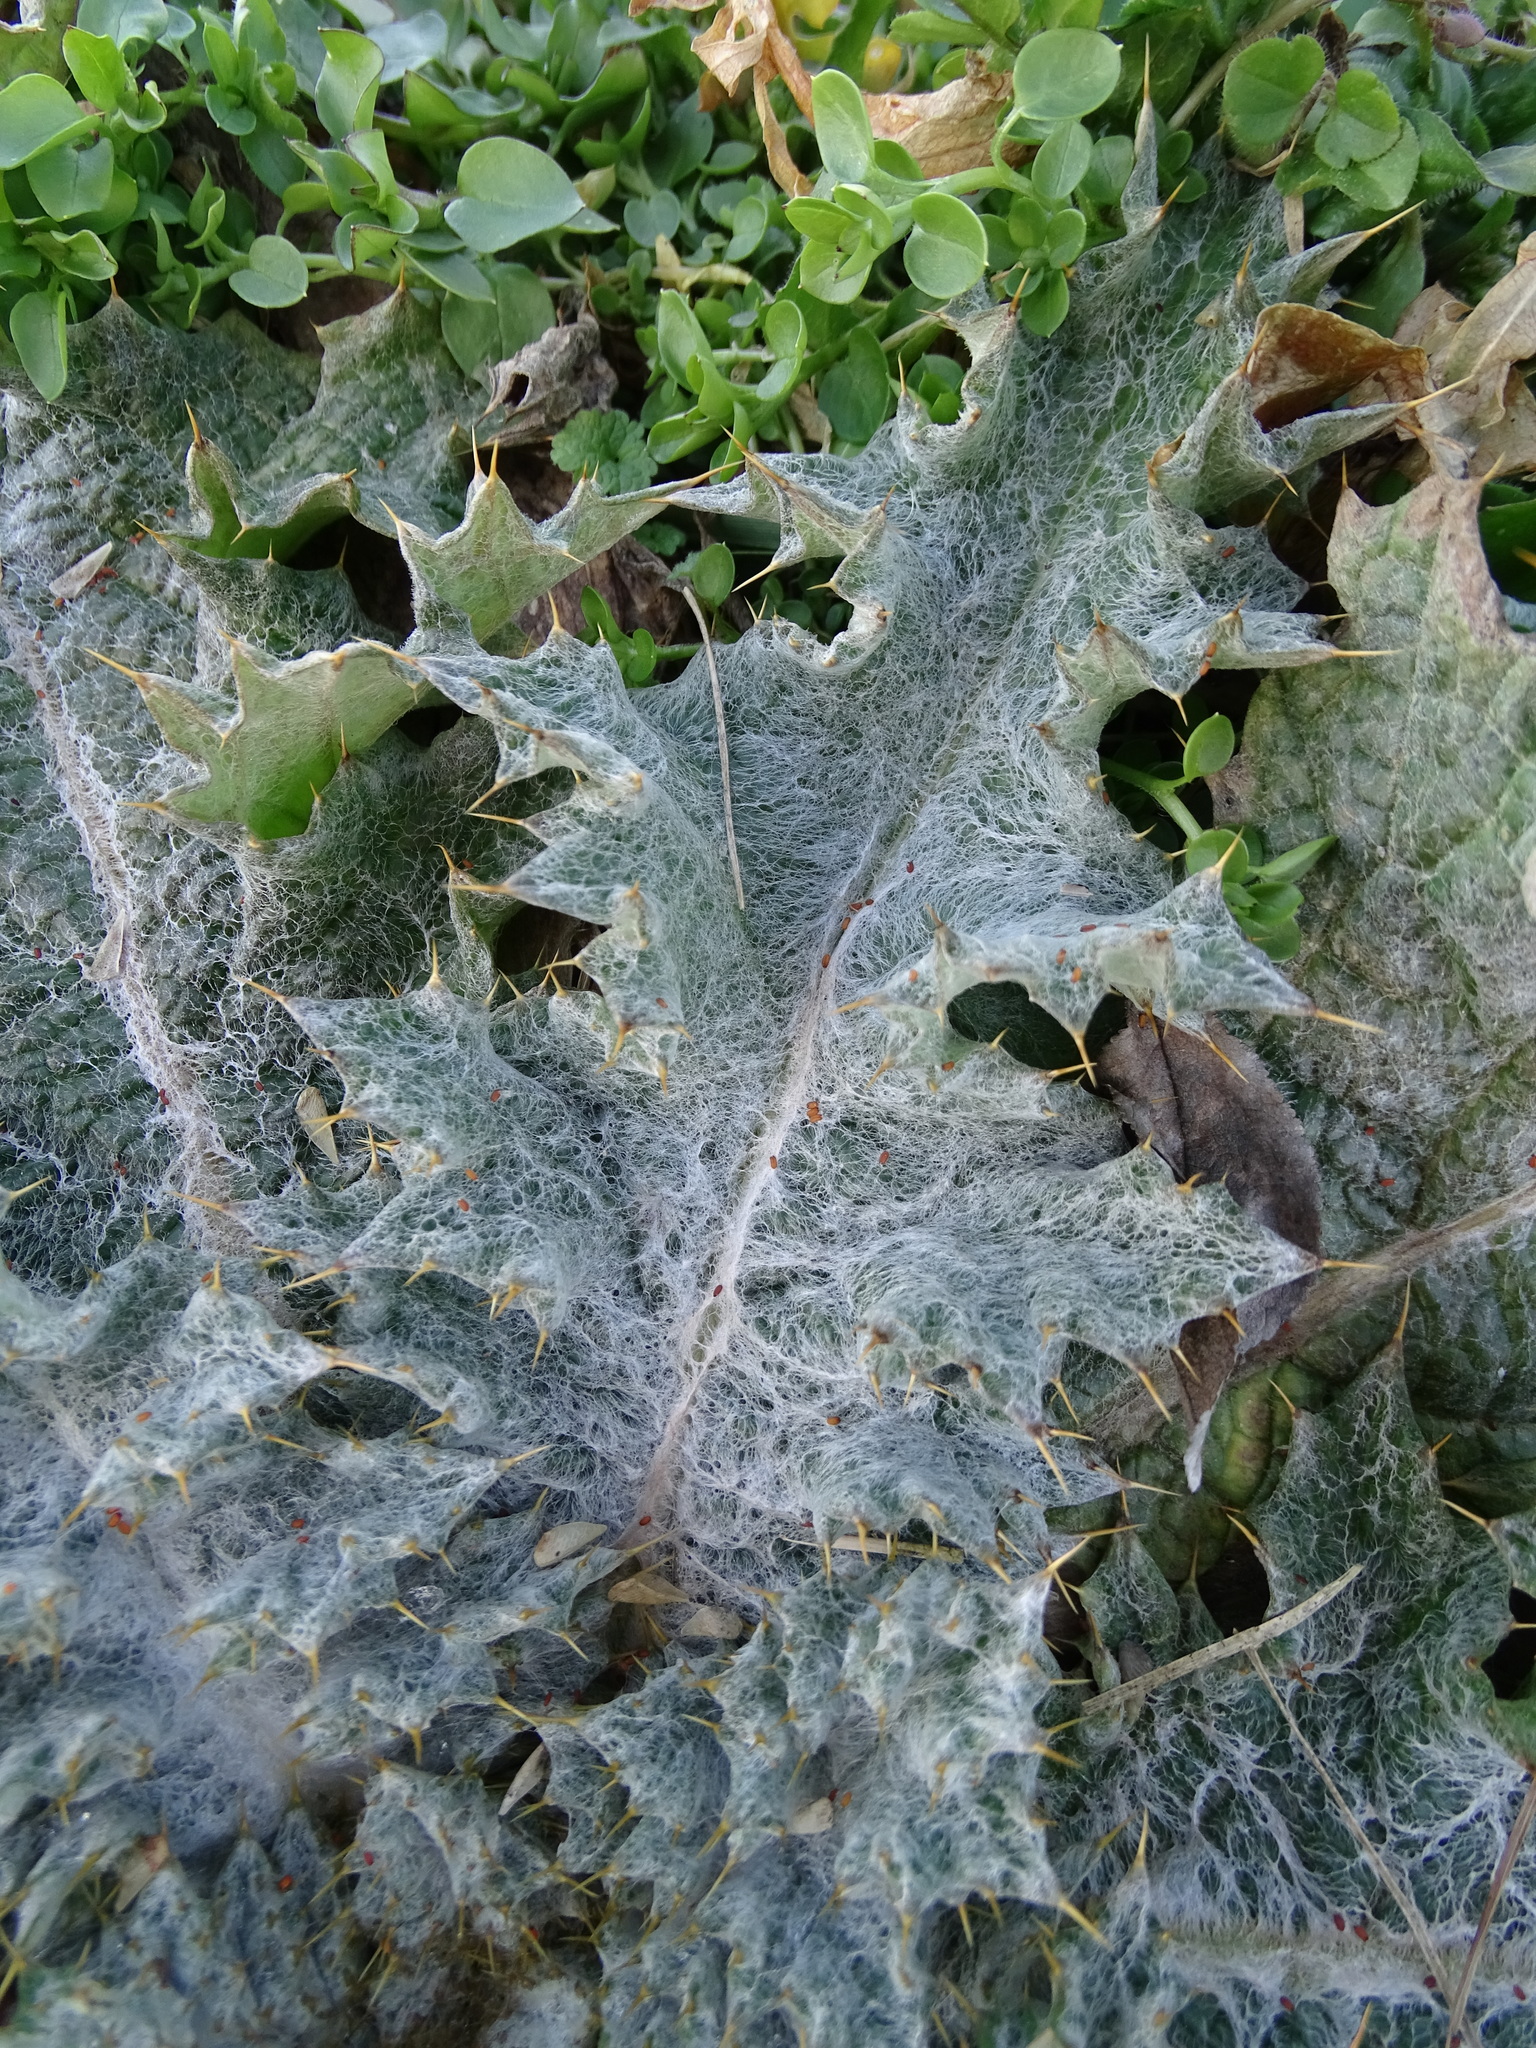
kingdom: Plantae
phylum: Tracheophyta
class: Magnoliopsida
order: Asterales
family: Asteraceae
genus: Onopordum
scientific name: Onopordum acanthium
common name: Scotch thistle
